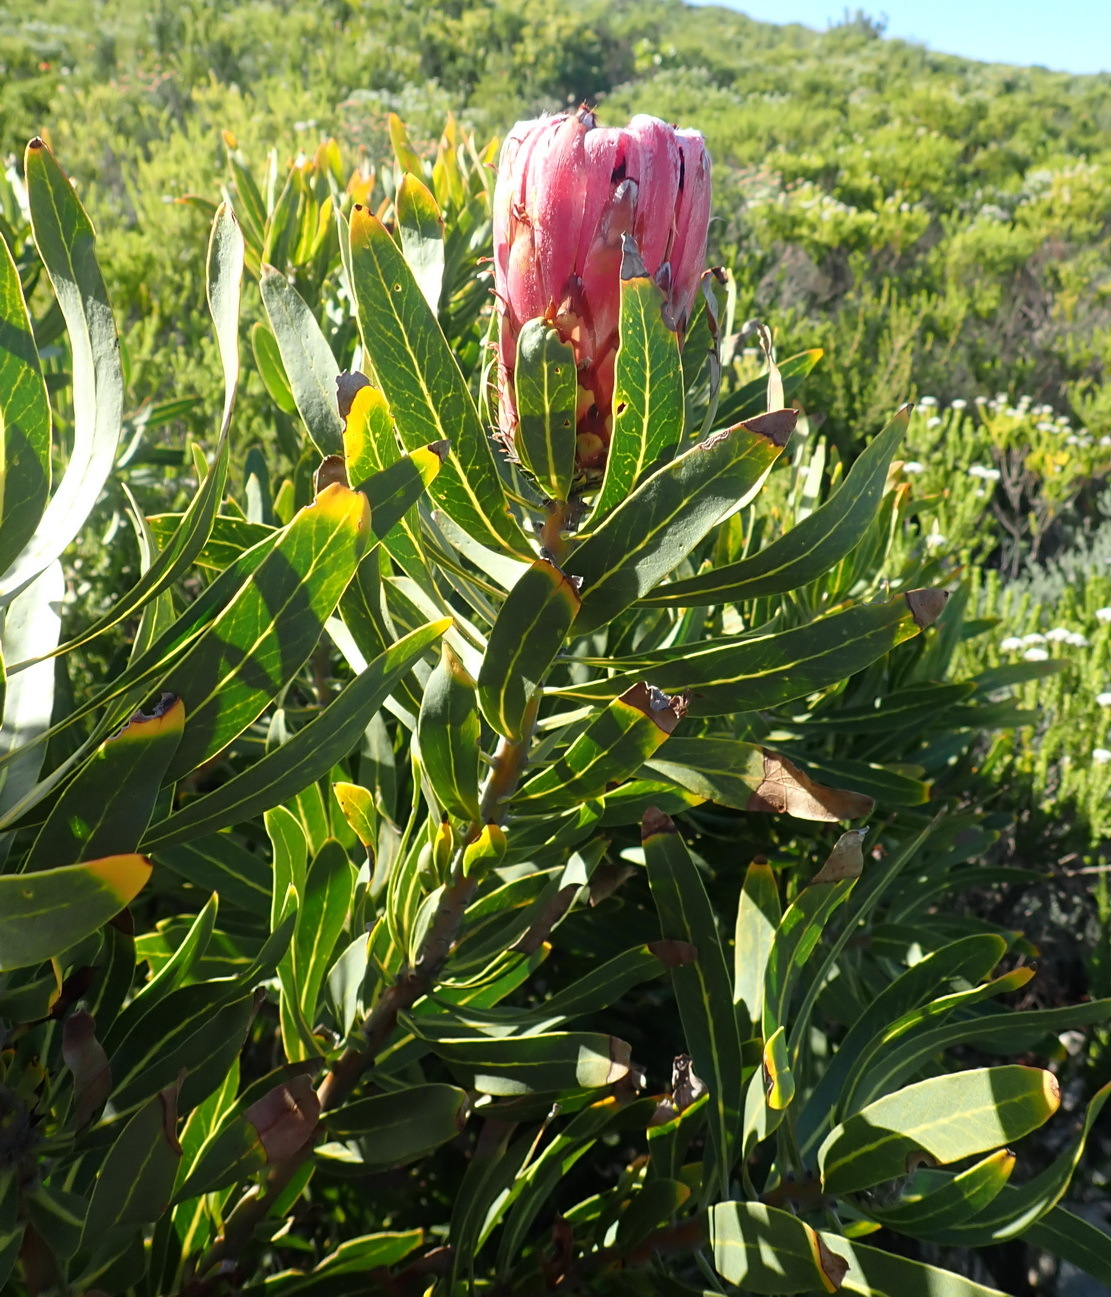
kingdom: Plantae
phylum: Tracheophyta
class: Magnoliopsida
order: Proteales
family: Proteaceae
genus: Protea
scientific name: Protea neriifolia
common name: Blue sugarbush
